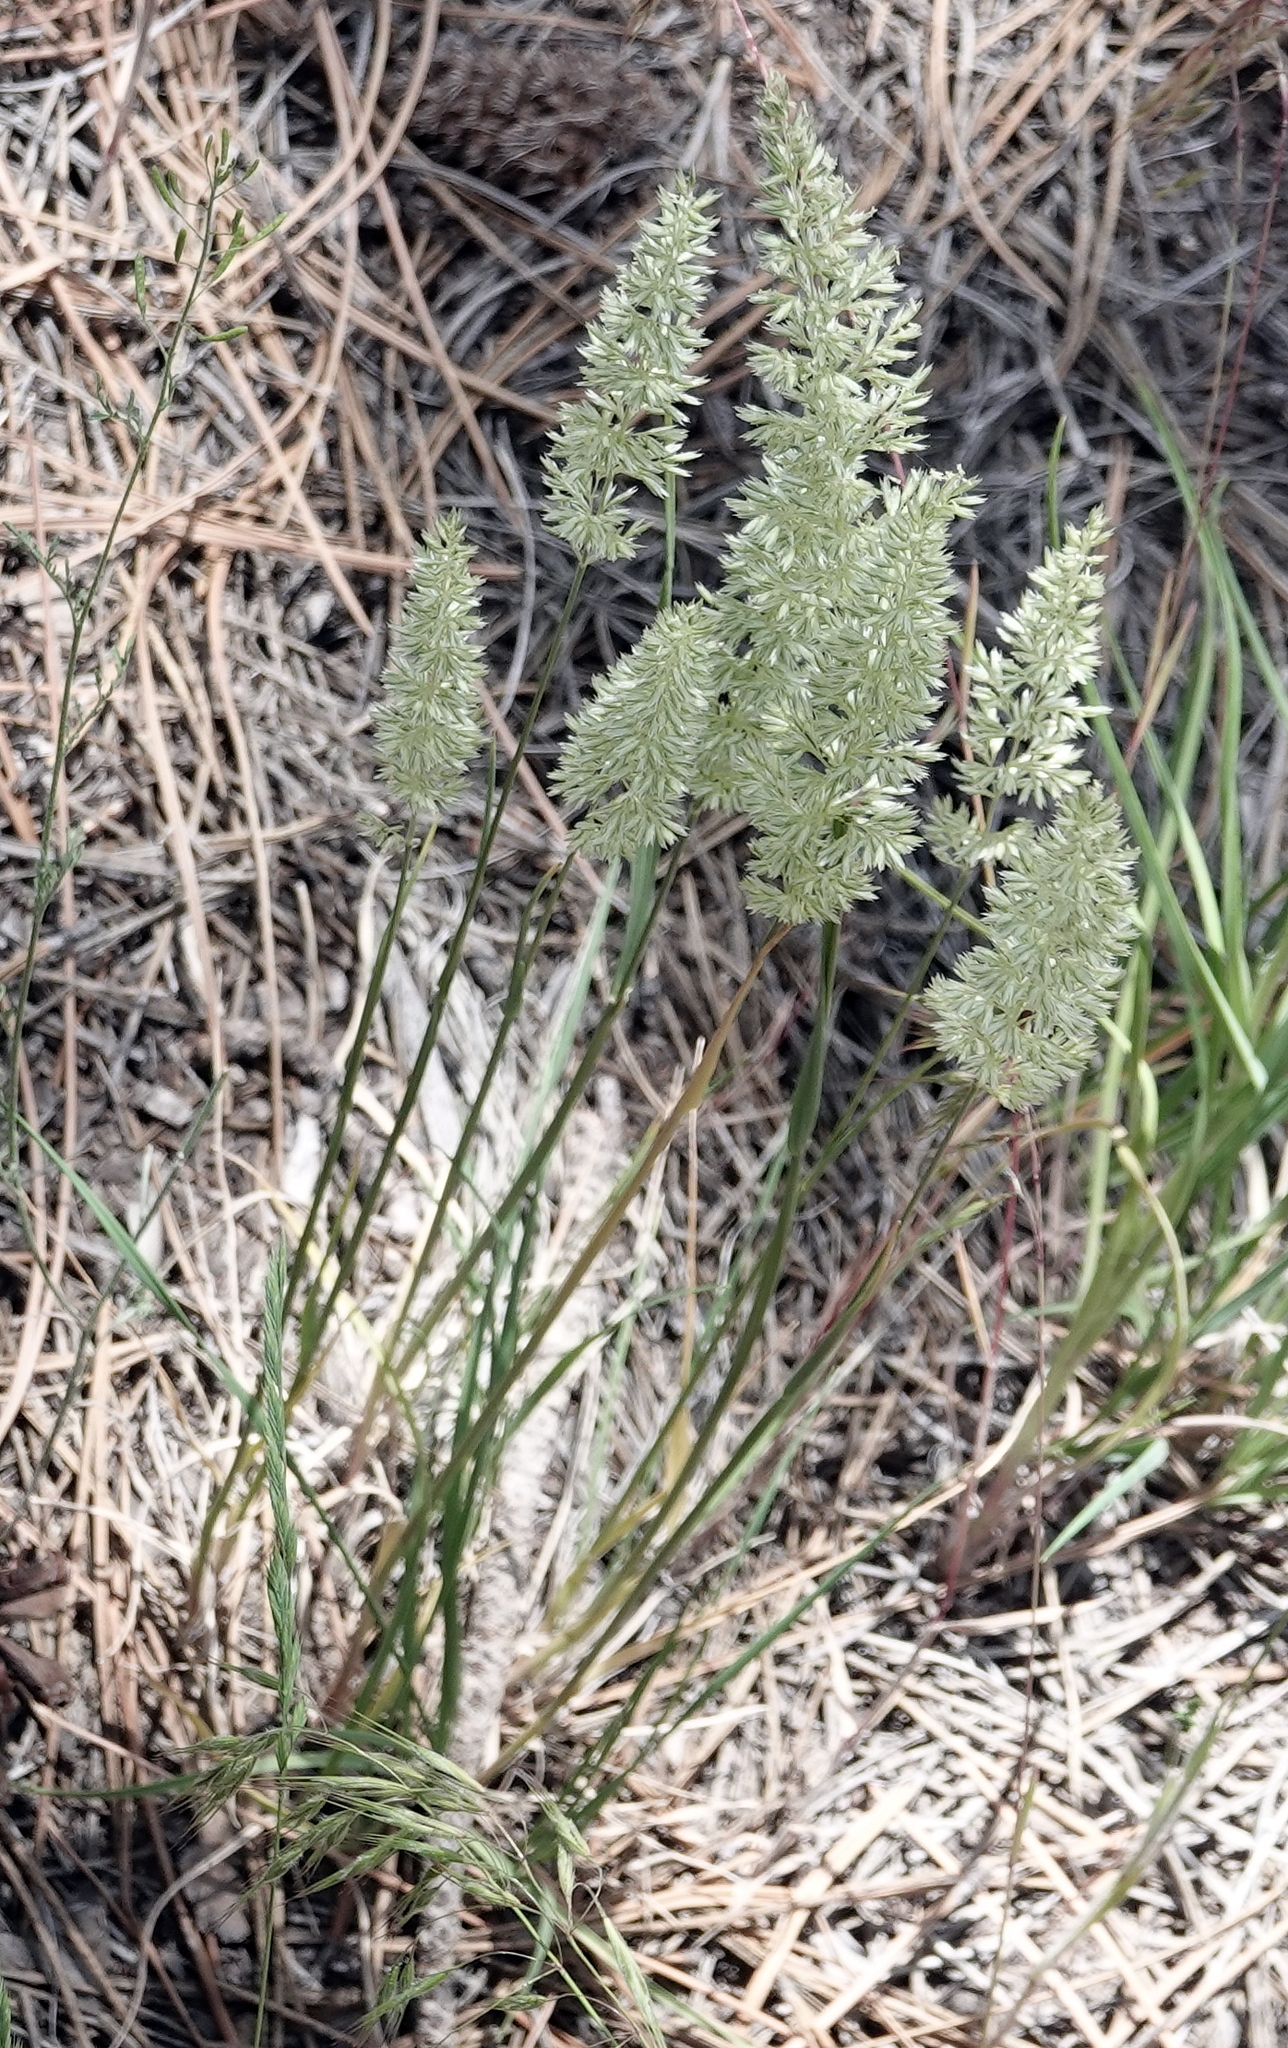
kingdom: Plantae
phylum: Tracheophyta
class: Liliopsida
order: Poales
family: Poaceae
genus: Koeleria
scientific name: Koeleria macrantha
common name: Crested hair-grass
